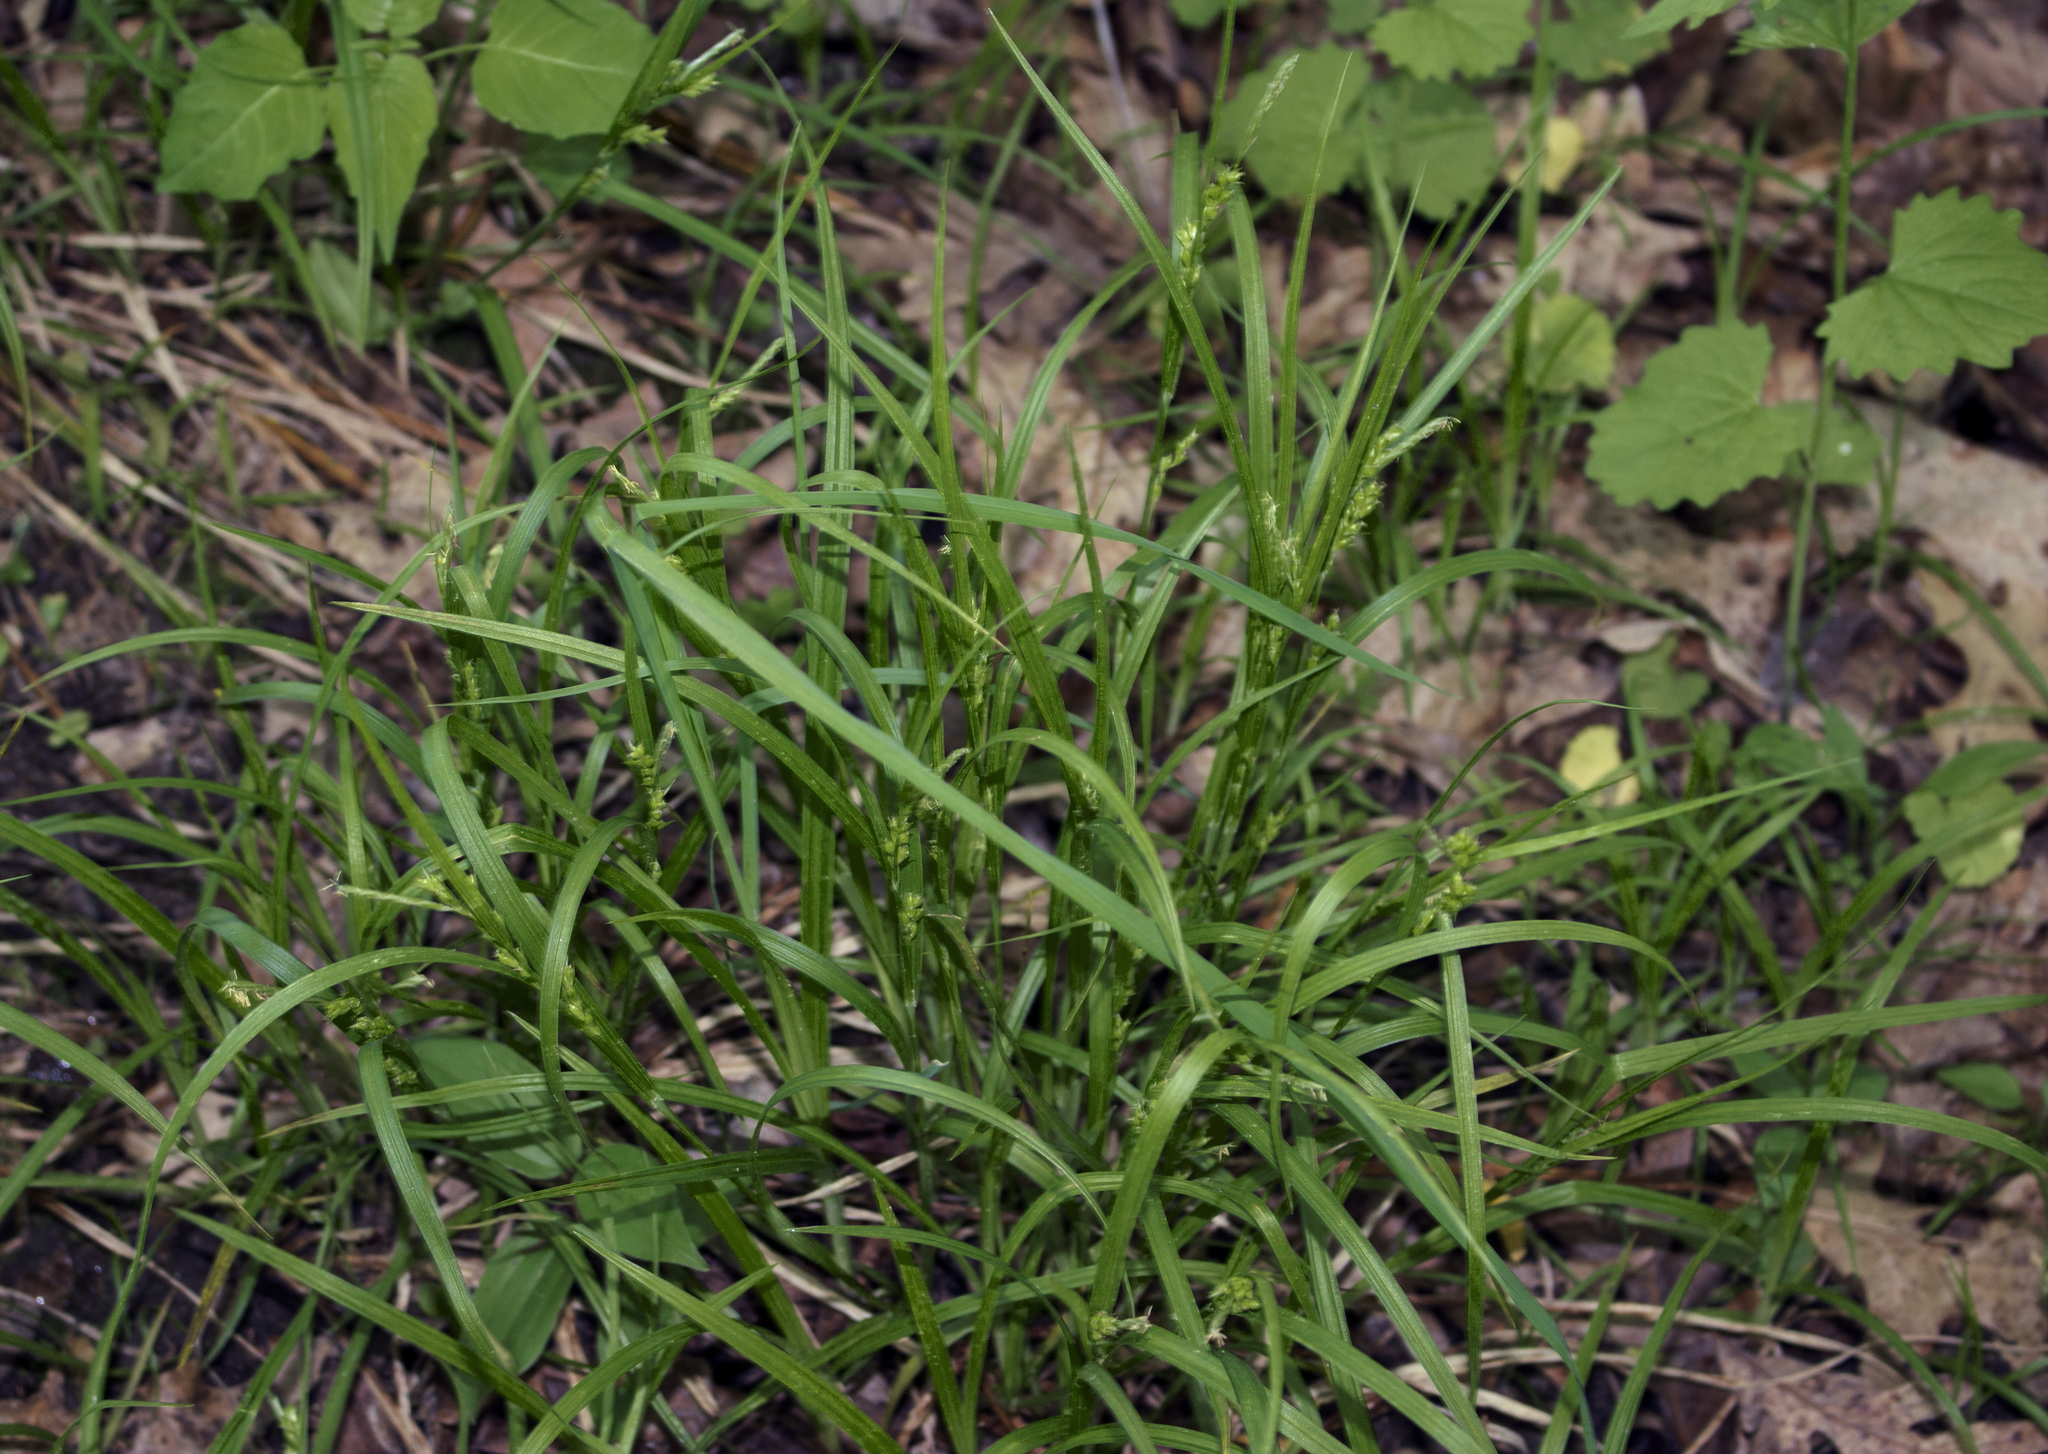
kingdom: Plantae
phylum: Tracheophyta
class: Liliopsida
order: Poales
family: Cyperaceae
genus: Carex
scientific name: Carex grisea
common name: Eastern narrow-leaved sedge
